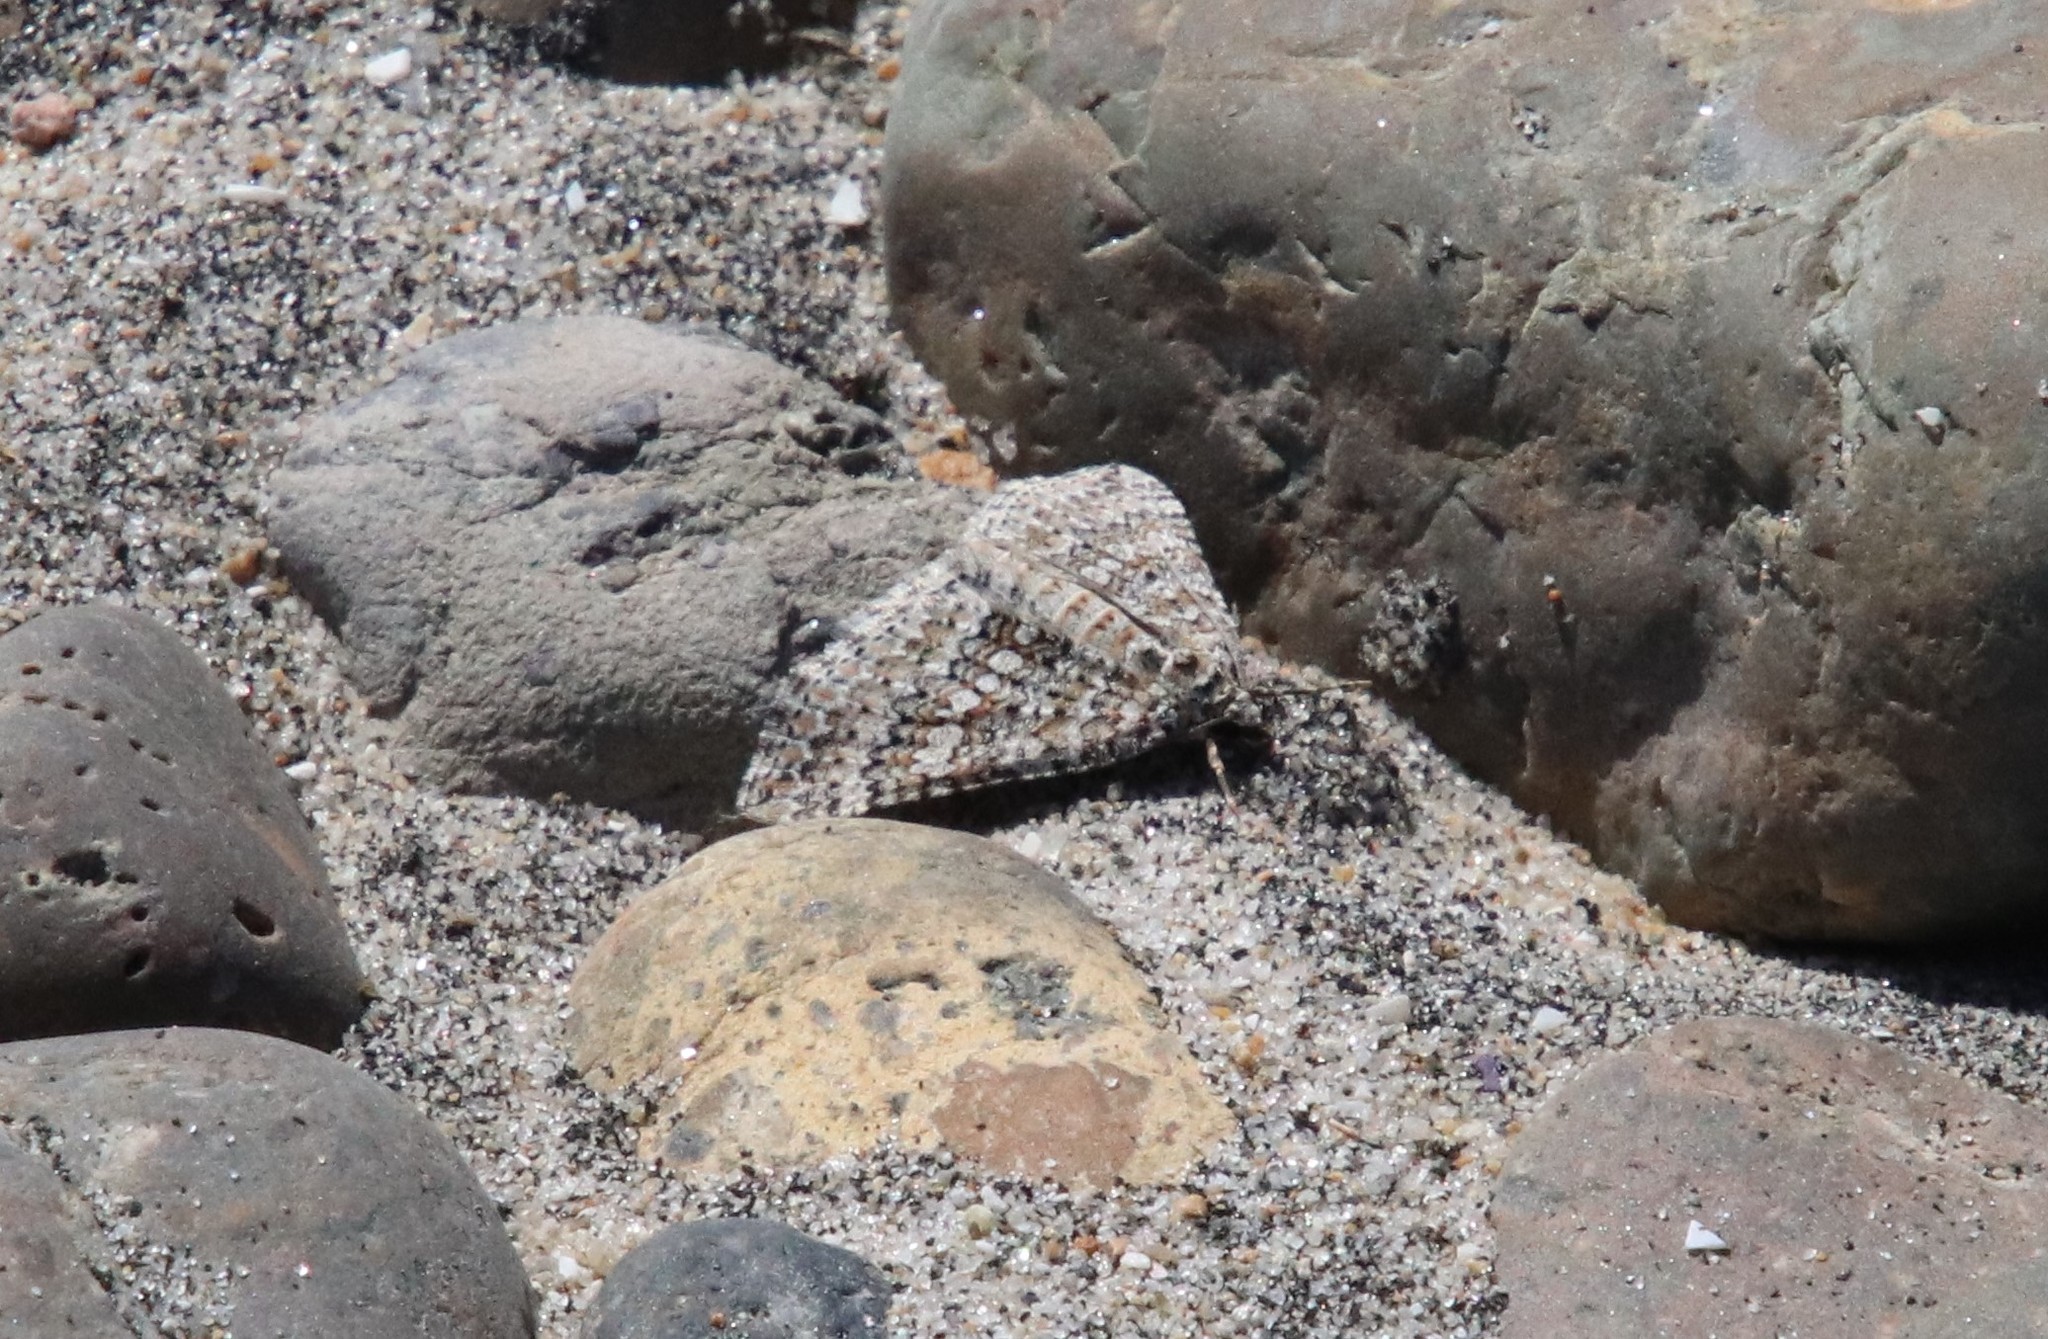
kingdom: Animalia
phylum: Arthropoda
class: Insecta
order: Lepidoptera
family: Geometridae
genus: Euphyia
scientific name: Euphyia implicata
